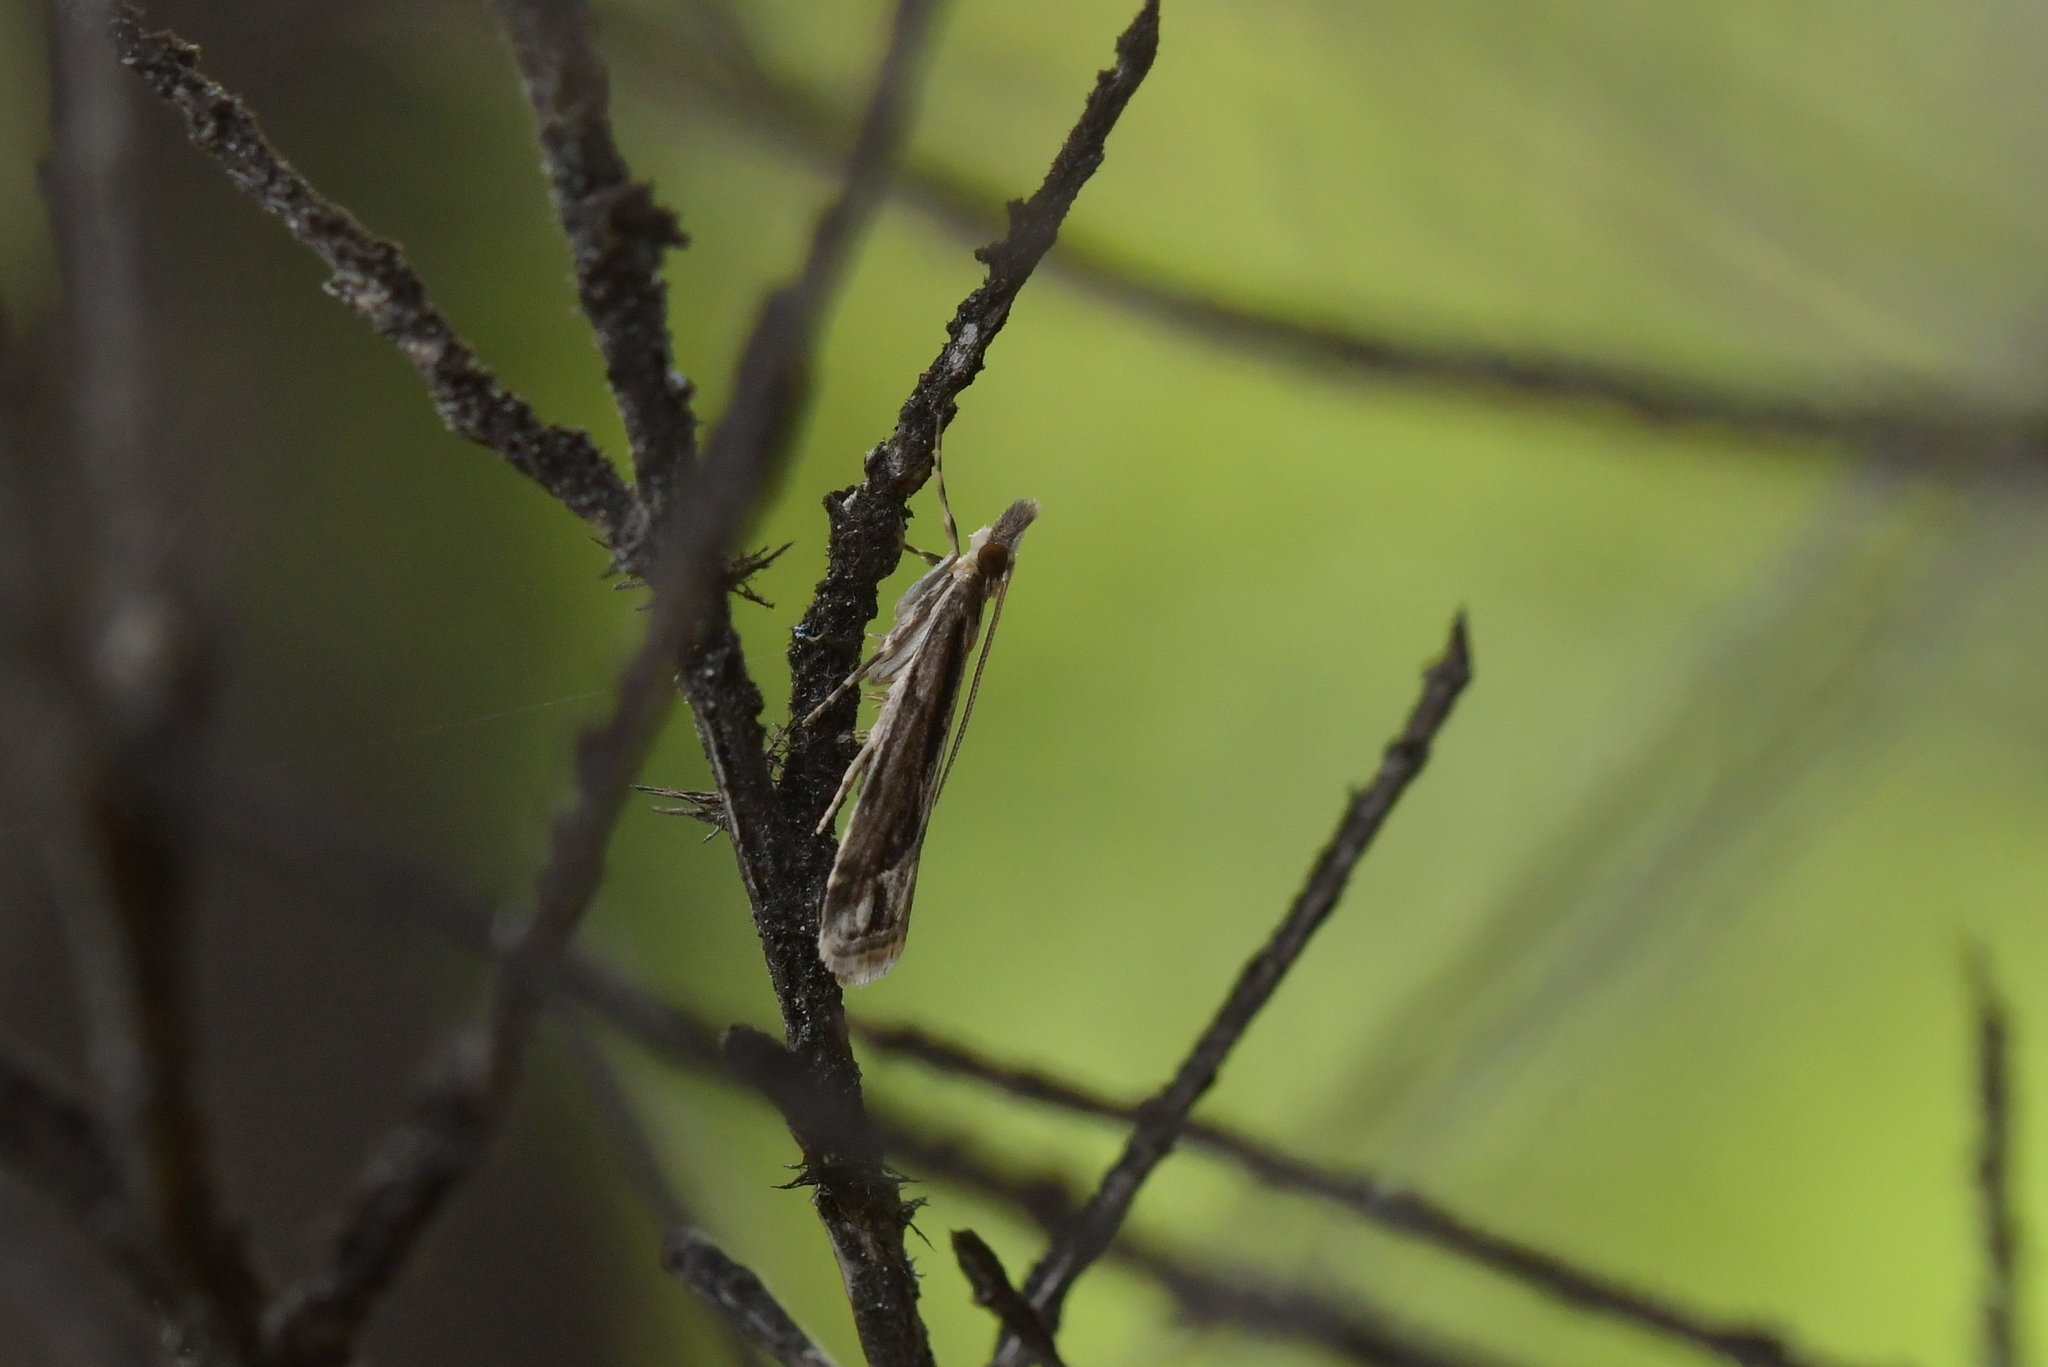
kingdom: Animalia
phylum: Arthropoda
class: Insecta
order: Lepidoptera
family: Crambidae
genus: Eudonia
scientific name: Eudonia steropaea
